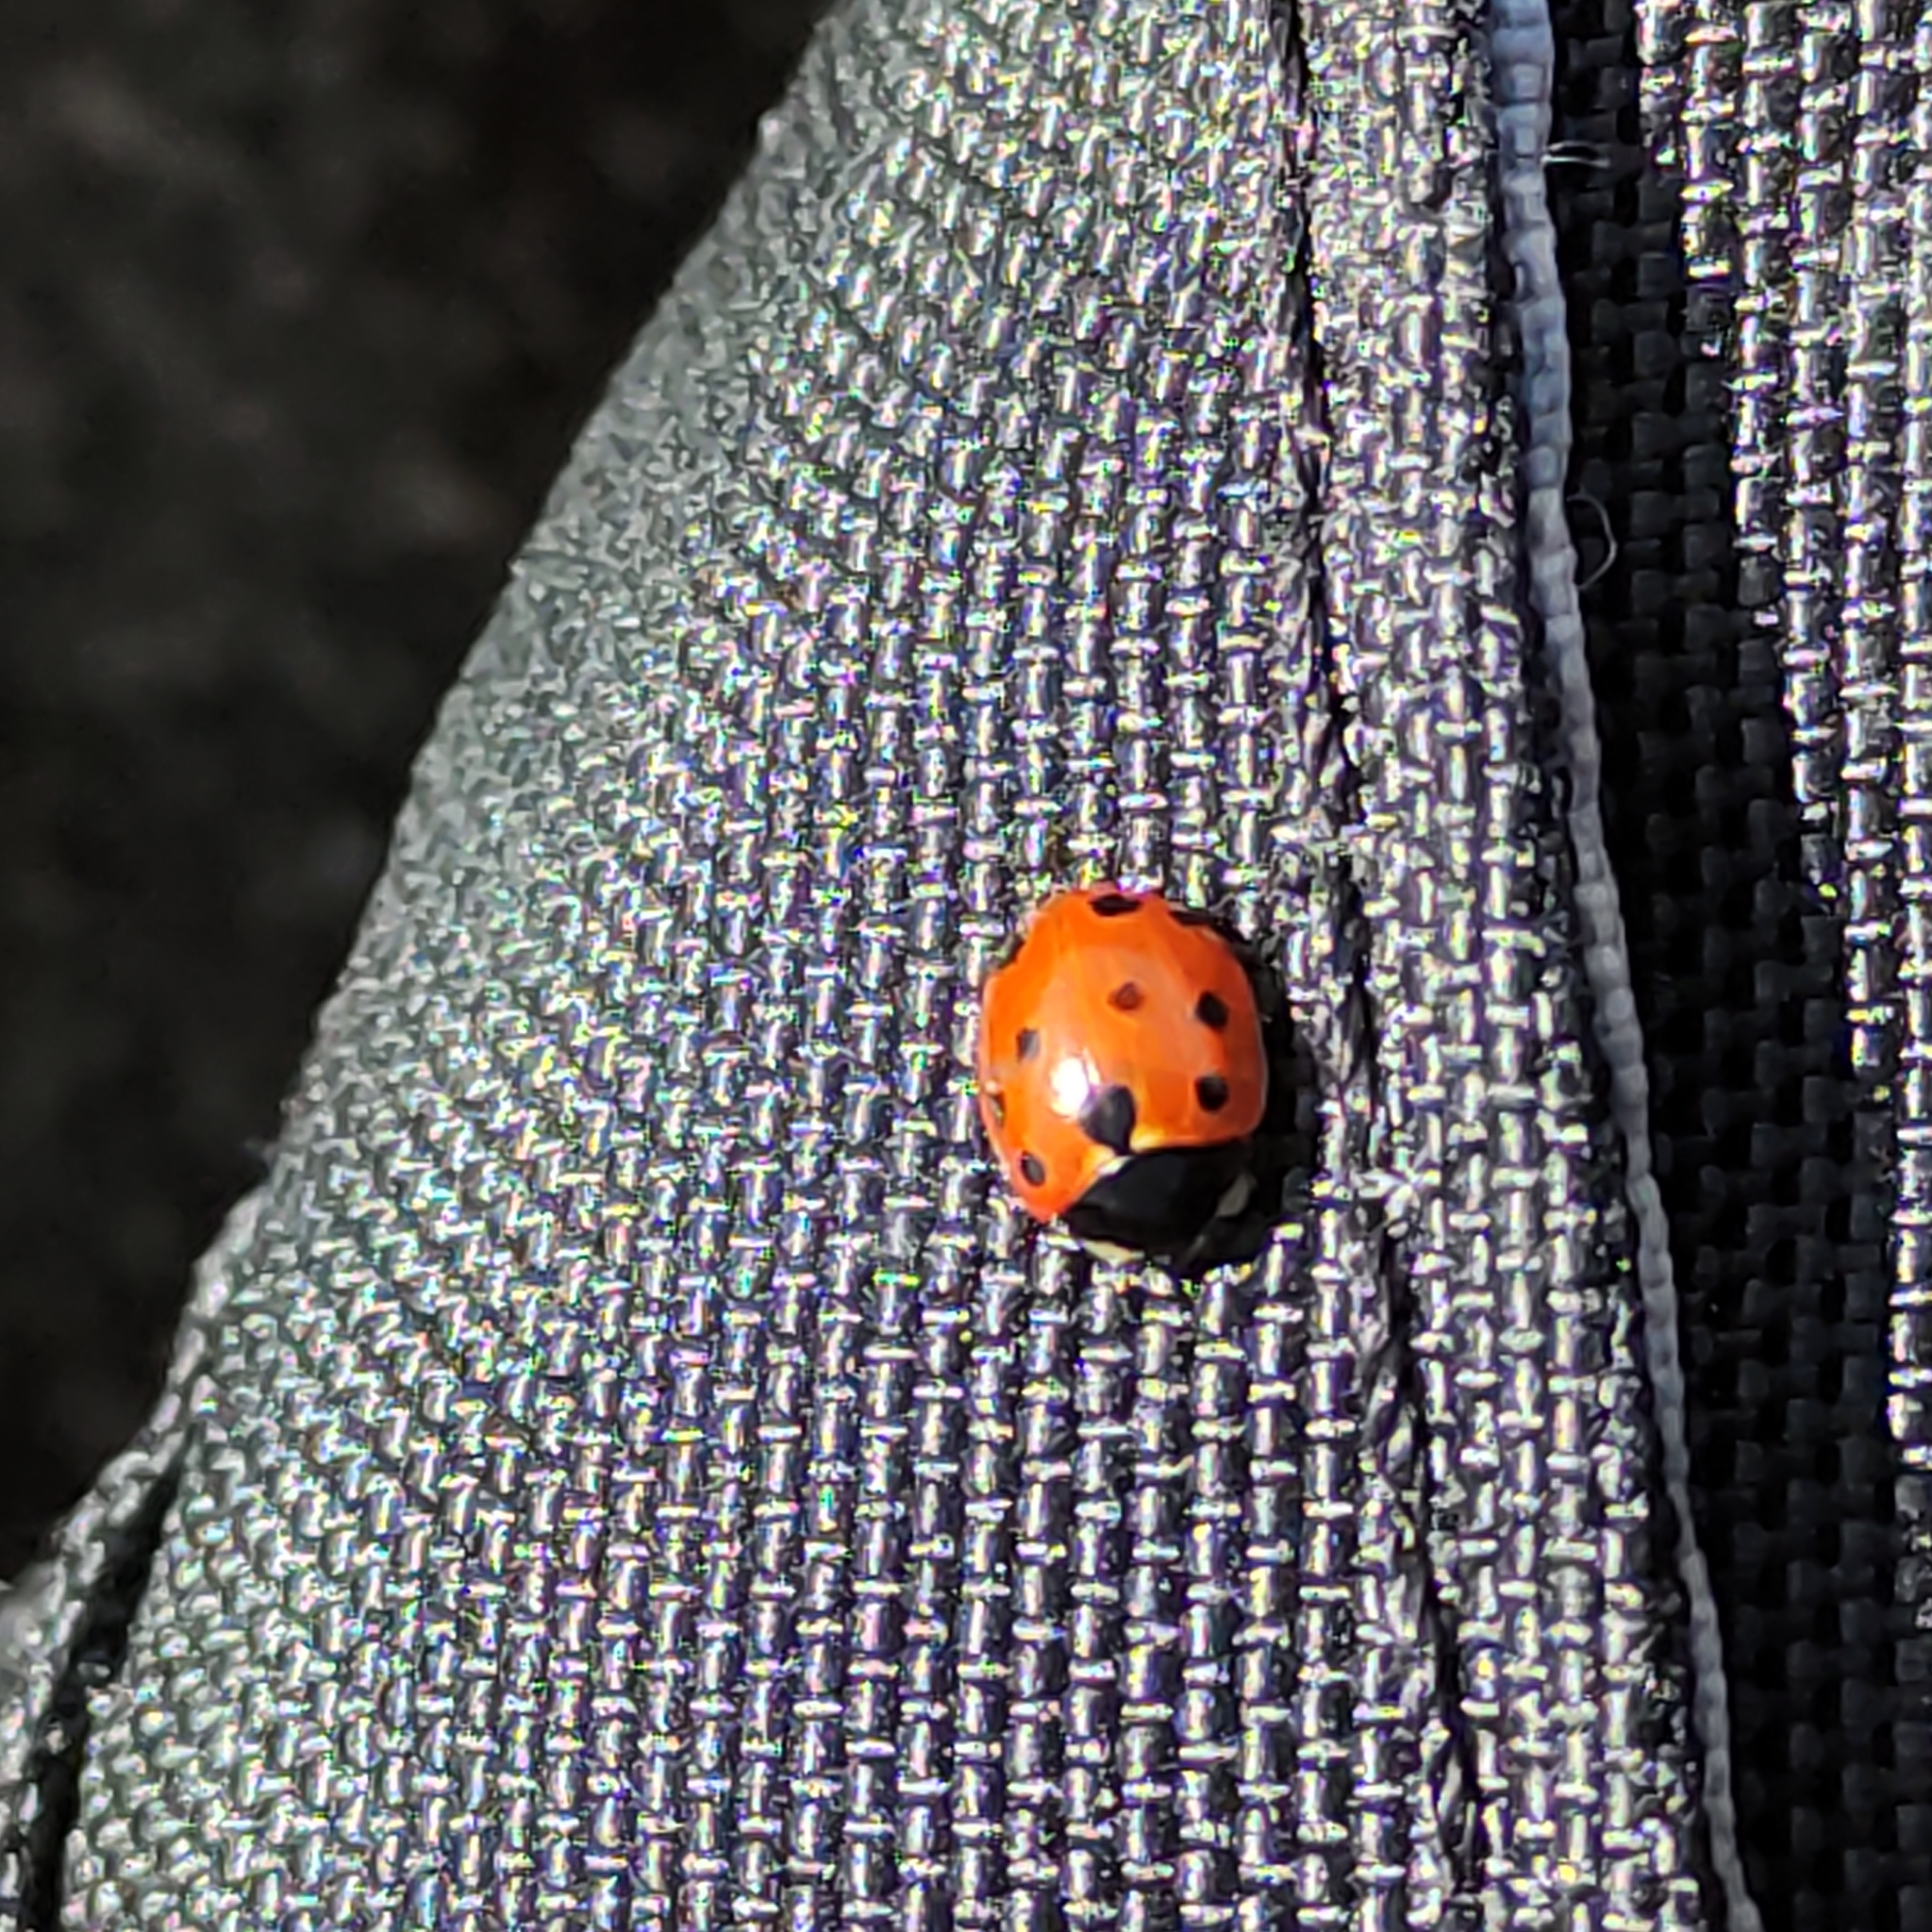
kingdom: Animalia
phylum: Arthropoda
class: Insecta
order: Coleoptera
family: Coccinellidae
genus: Coccinella
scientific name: Coccinella undecimpunctata
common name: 11-spot ladybird
